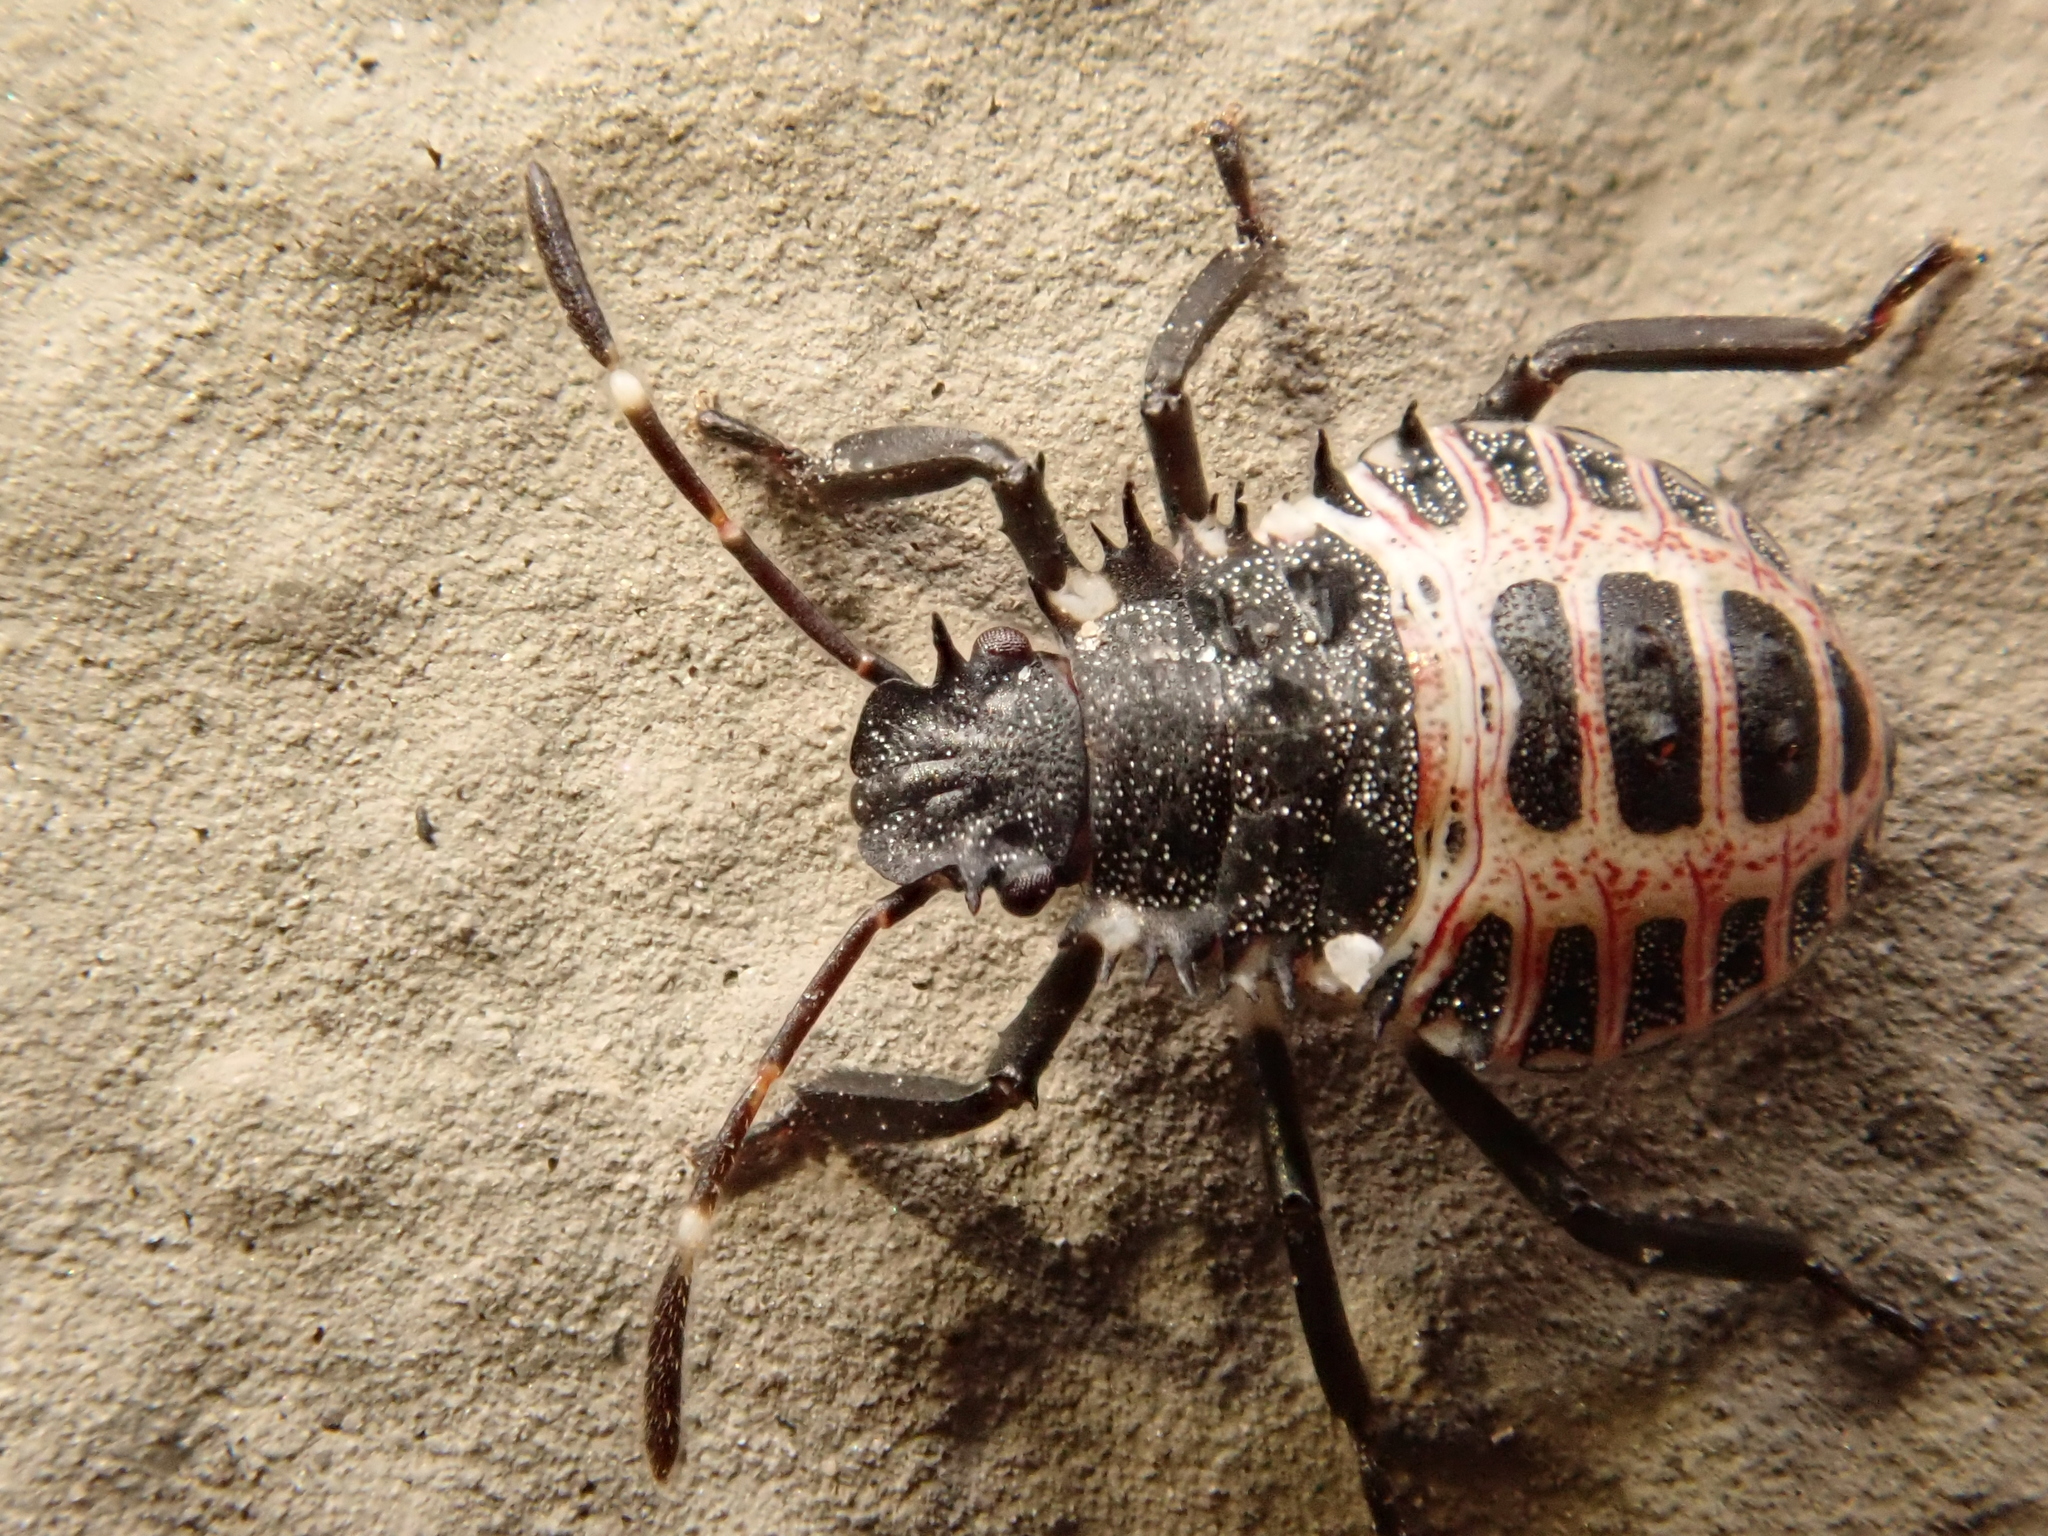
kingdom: Animalia
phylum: Arthropoda
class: Insecta
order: Hemiptera
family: Pentatomidae
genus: Halyomorpha
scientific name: Halyomorpha halys
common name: Brown marmorated stink bug
